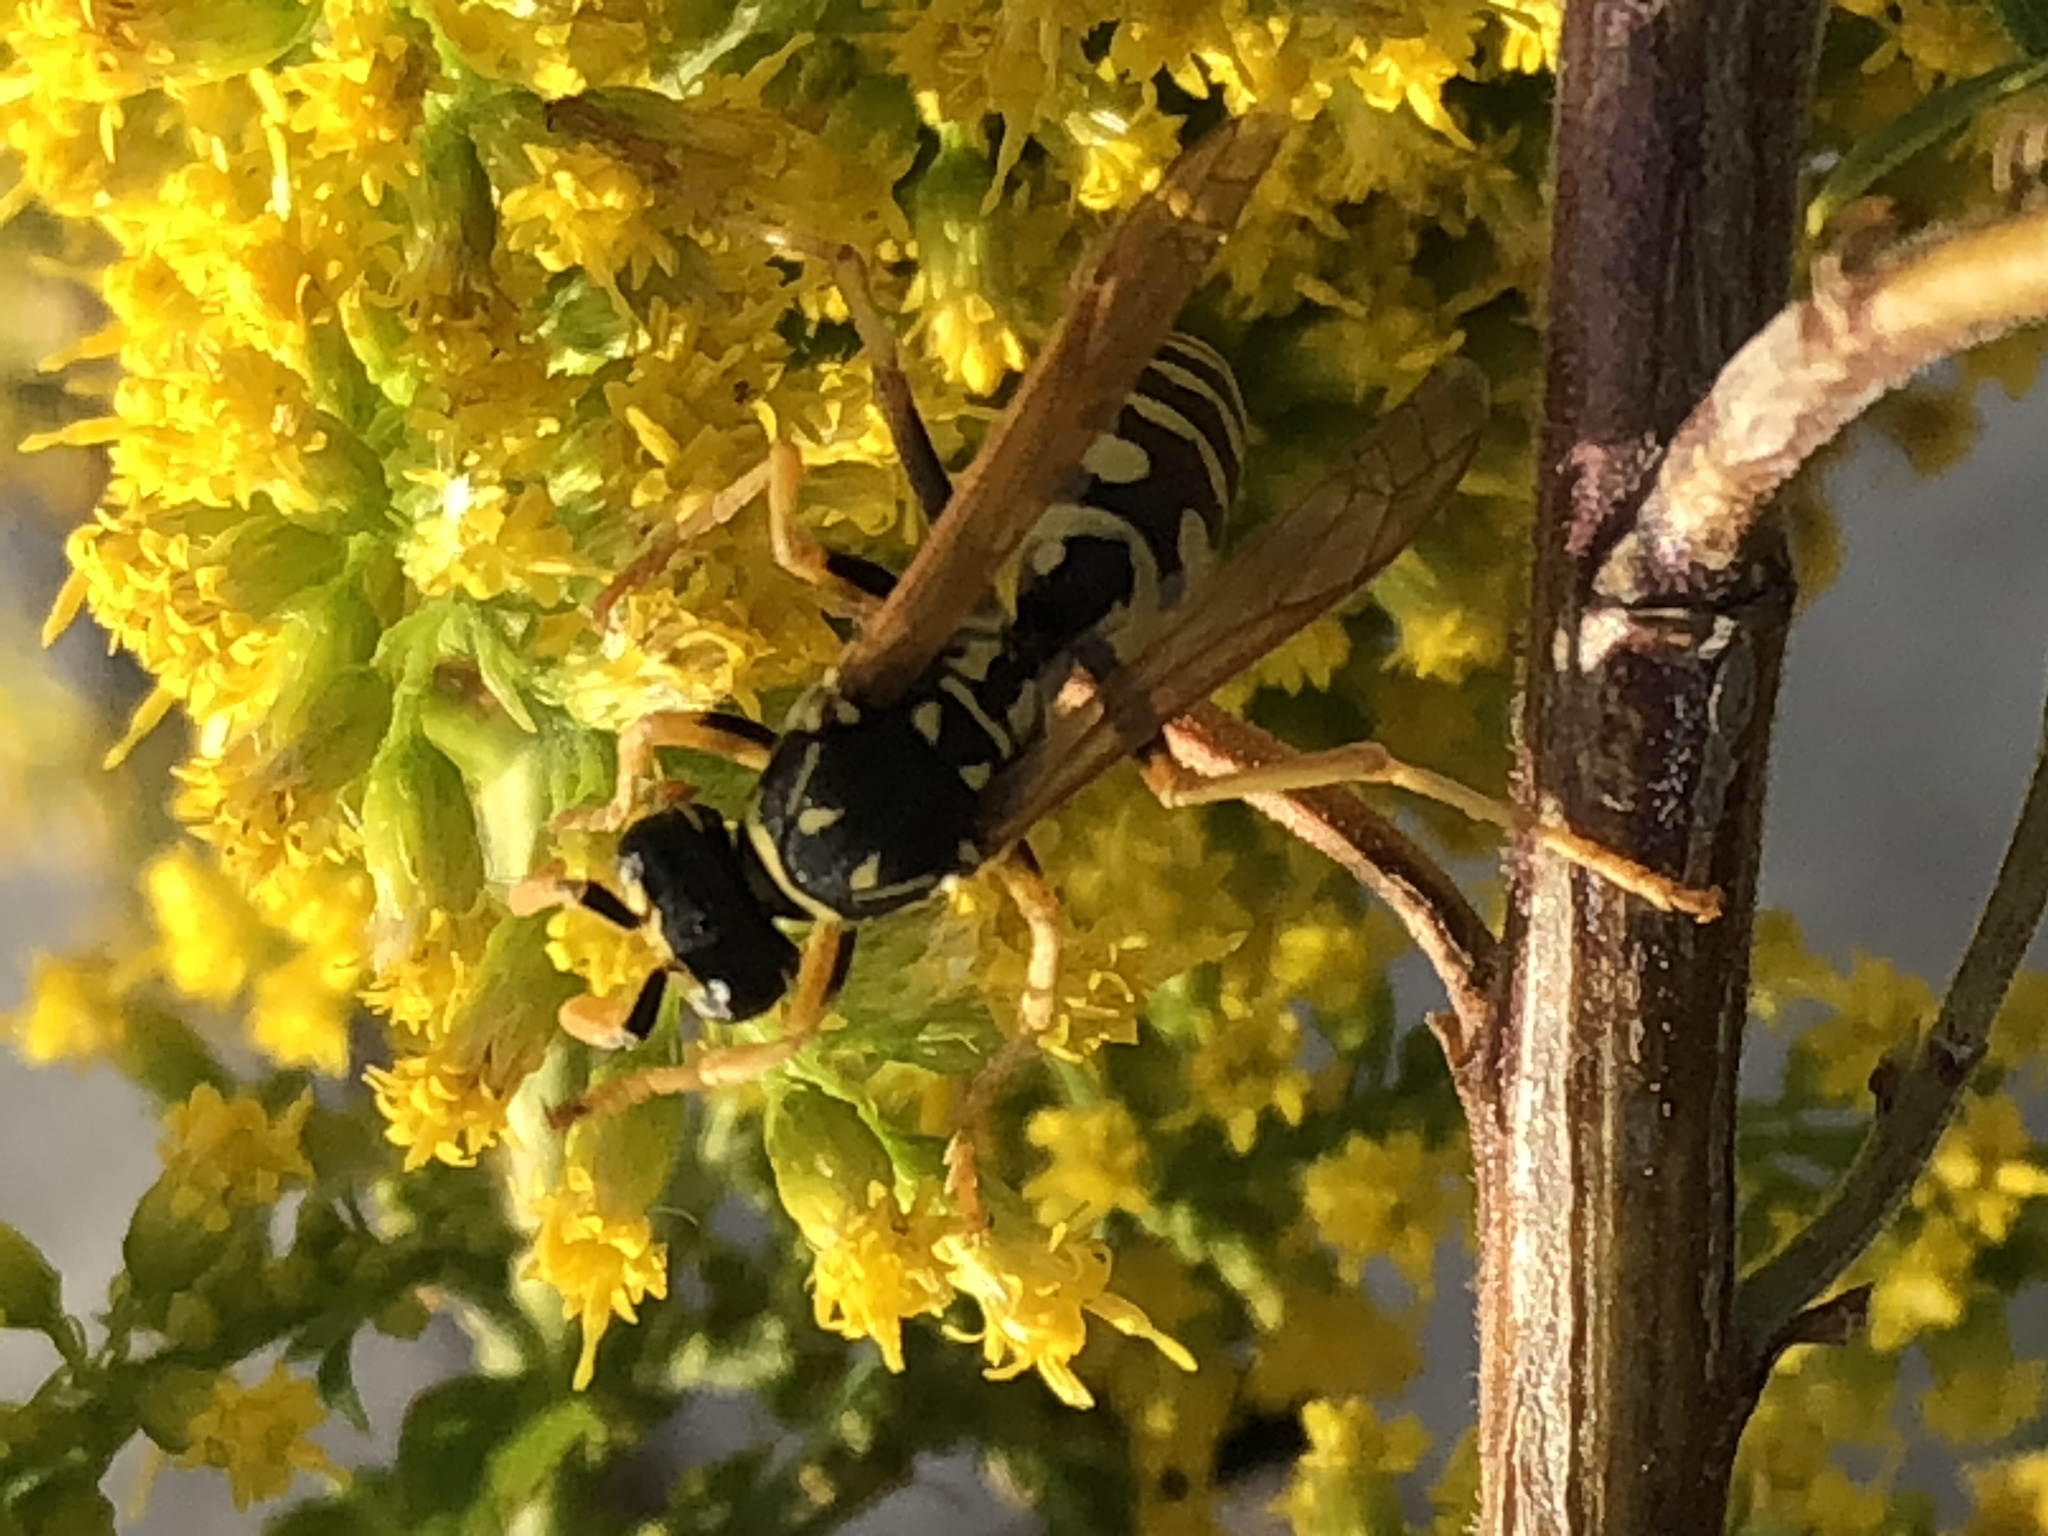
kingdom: Animalia
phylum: Arthropoda
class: Insecta
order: Hymenoptera
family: Eumenidae
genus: Polistes
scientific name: Polistes dominula
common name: Paper wasp
